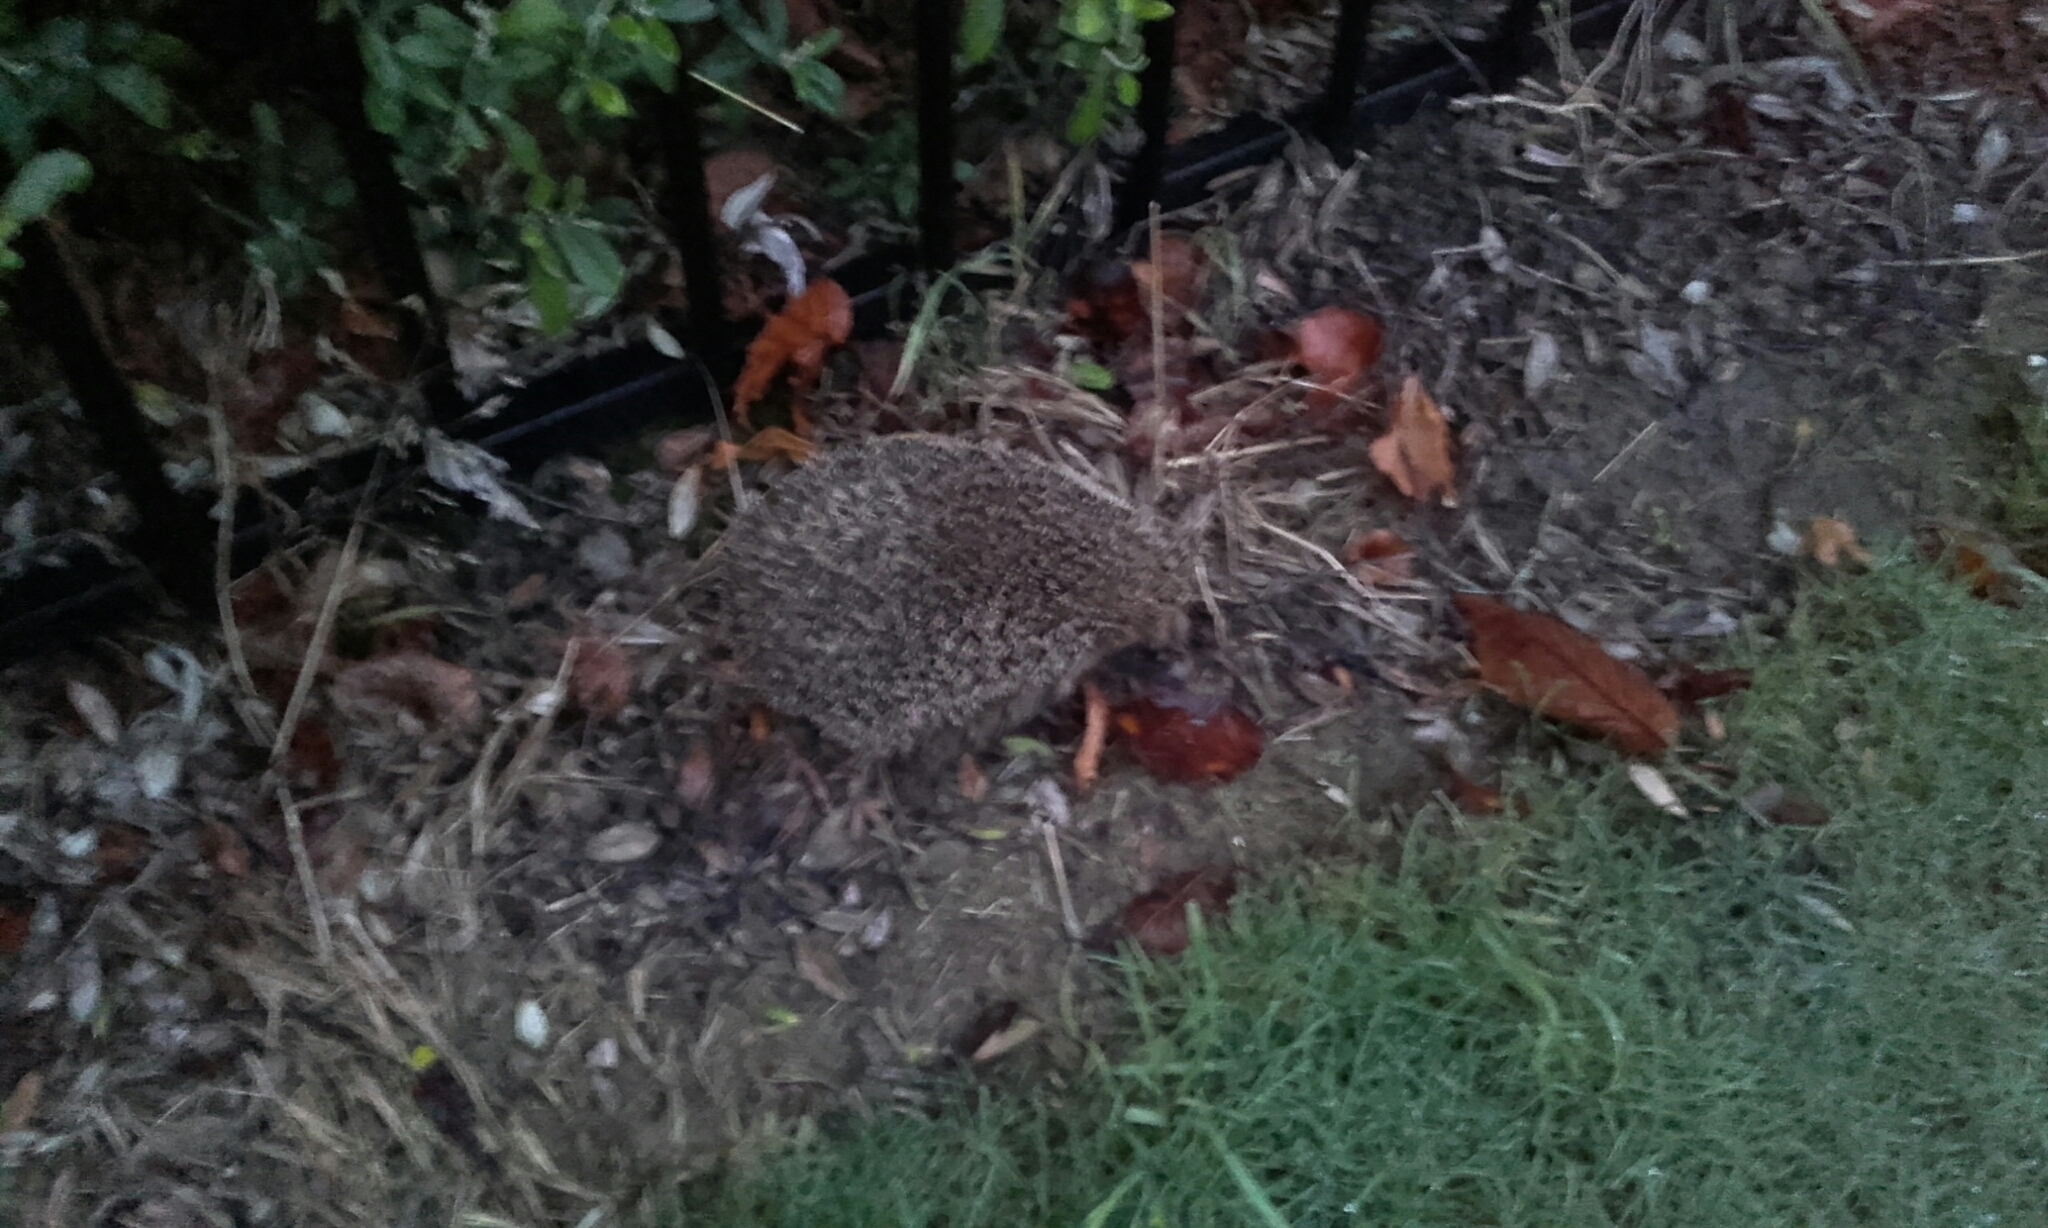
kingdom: Animalia
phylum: Chordata
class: Mammalia
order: Erinaceomorpha
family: Erinaceidae
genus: Erinaceus
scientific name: Erinaceus europaeus
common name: West european hedgehog
